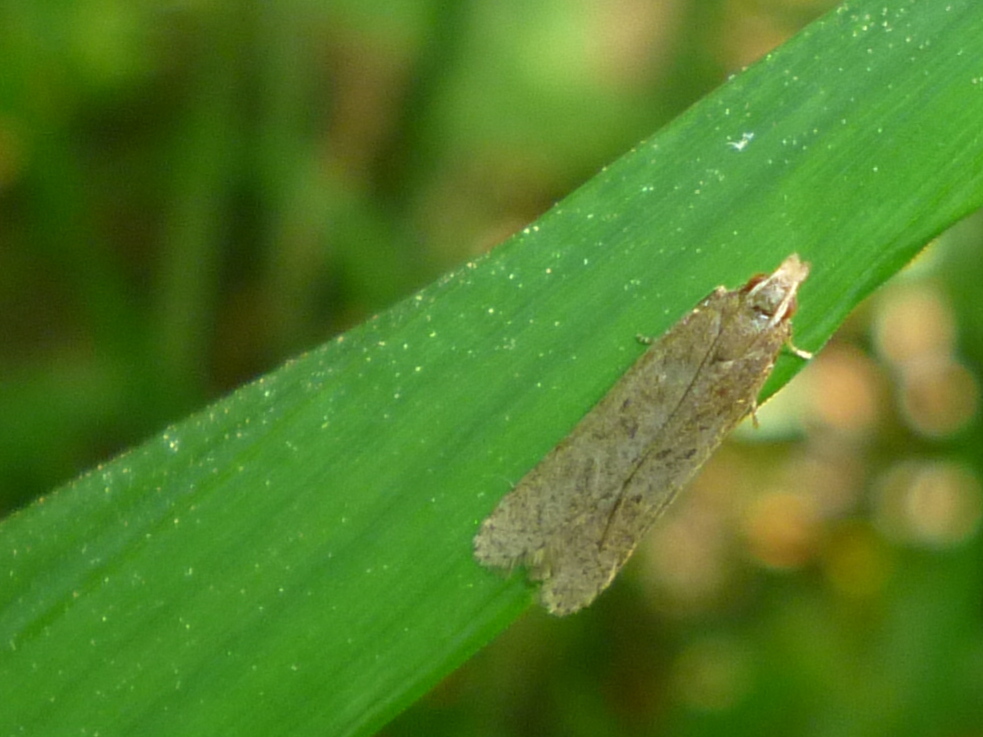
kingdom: Animalia
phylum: Arthropoda
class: Insecta
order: Lepidoptera
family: Gelechiidae
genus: Dichomeris
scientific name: Dichomeris ligulella
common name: Moth
